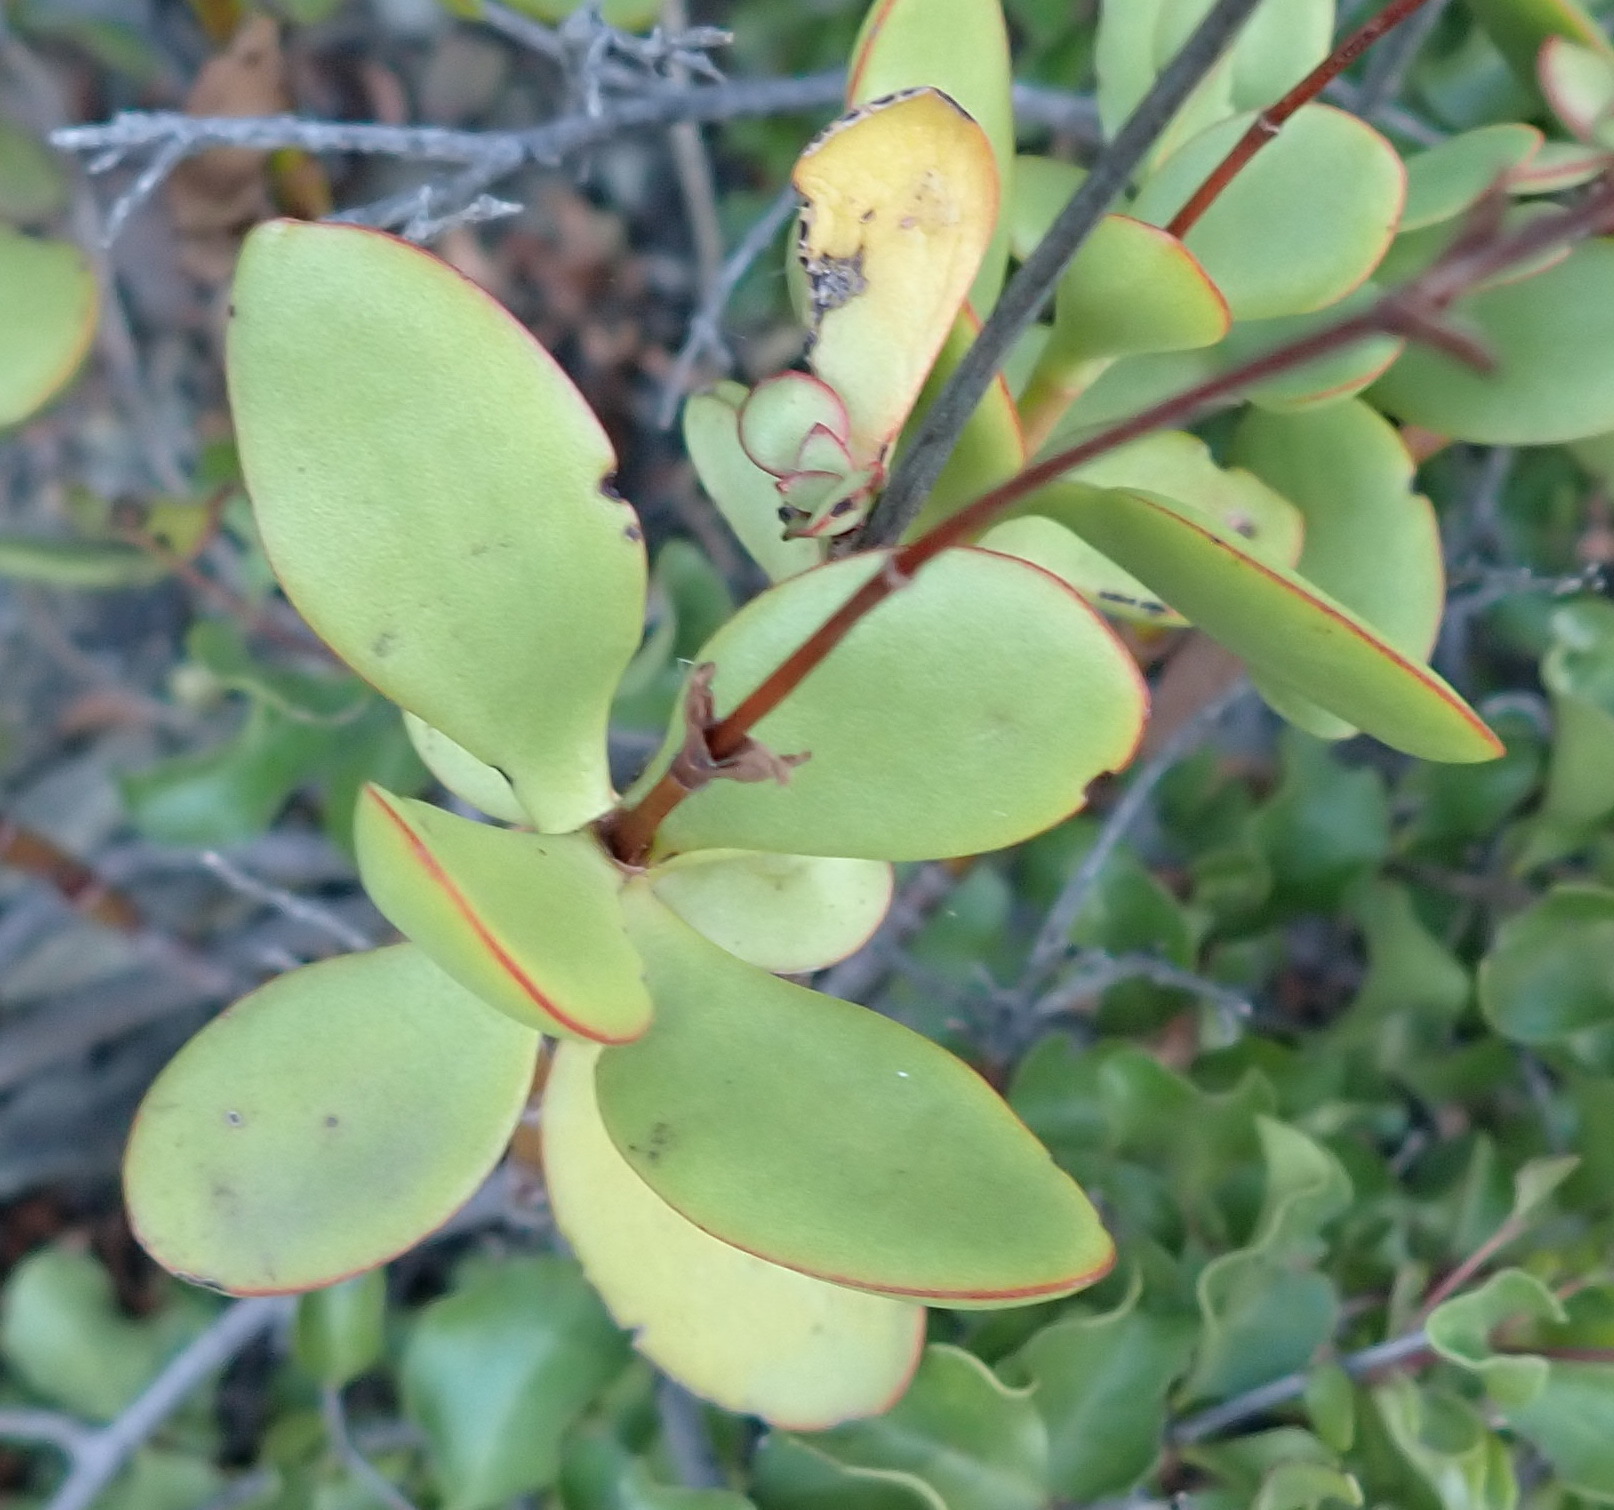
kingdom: Plantae
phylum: Tracheophyta
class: Magnoliopsida
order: Saxifragales
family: Crassulaceae
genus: Crassula
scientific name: Crassula cultrata
